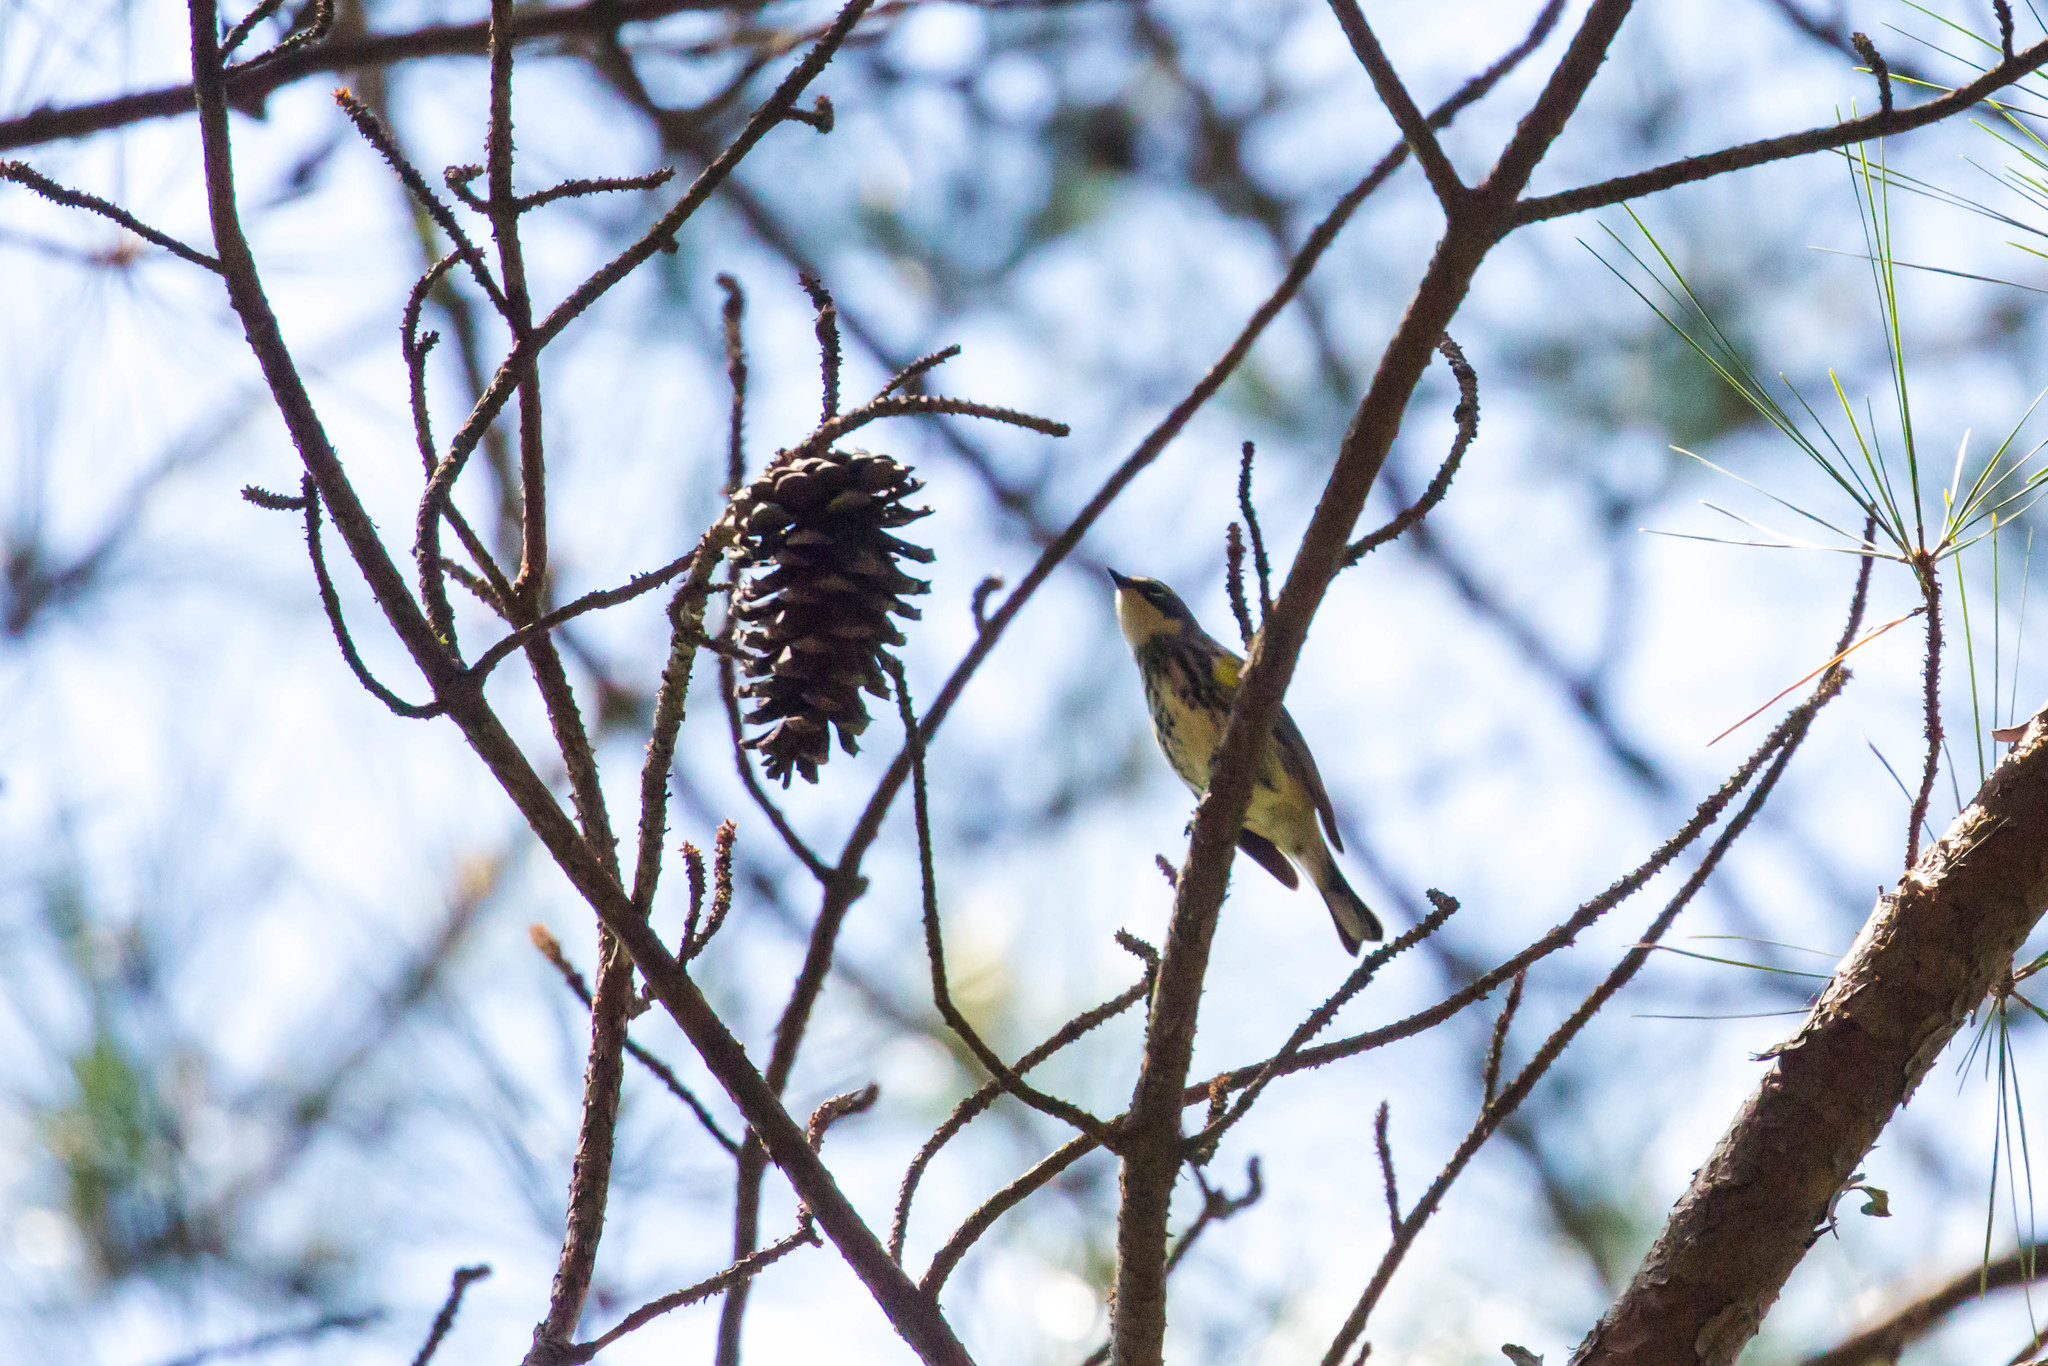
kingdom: Animalia
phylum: Chordata
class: Aves
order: Passeriformes
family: Parulidae
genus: Setophaga
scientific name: Setophaga coronata
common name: Myrtle warbler
